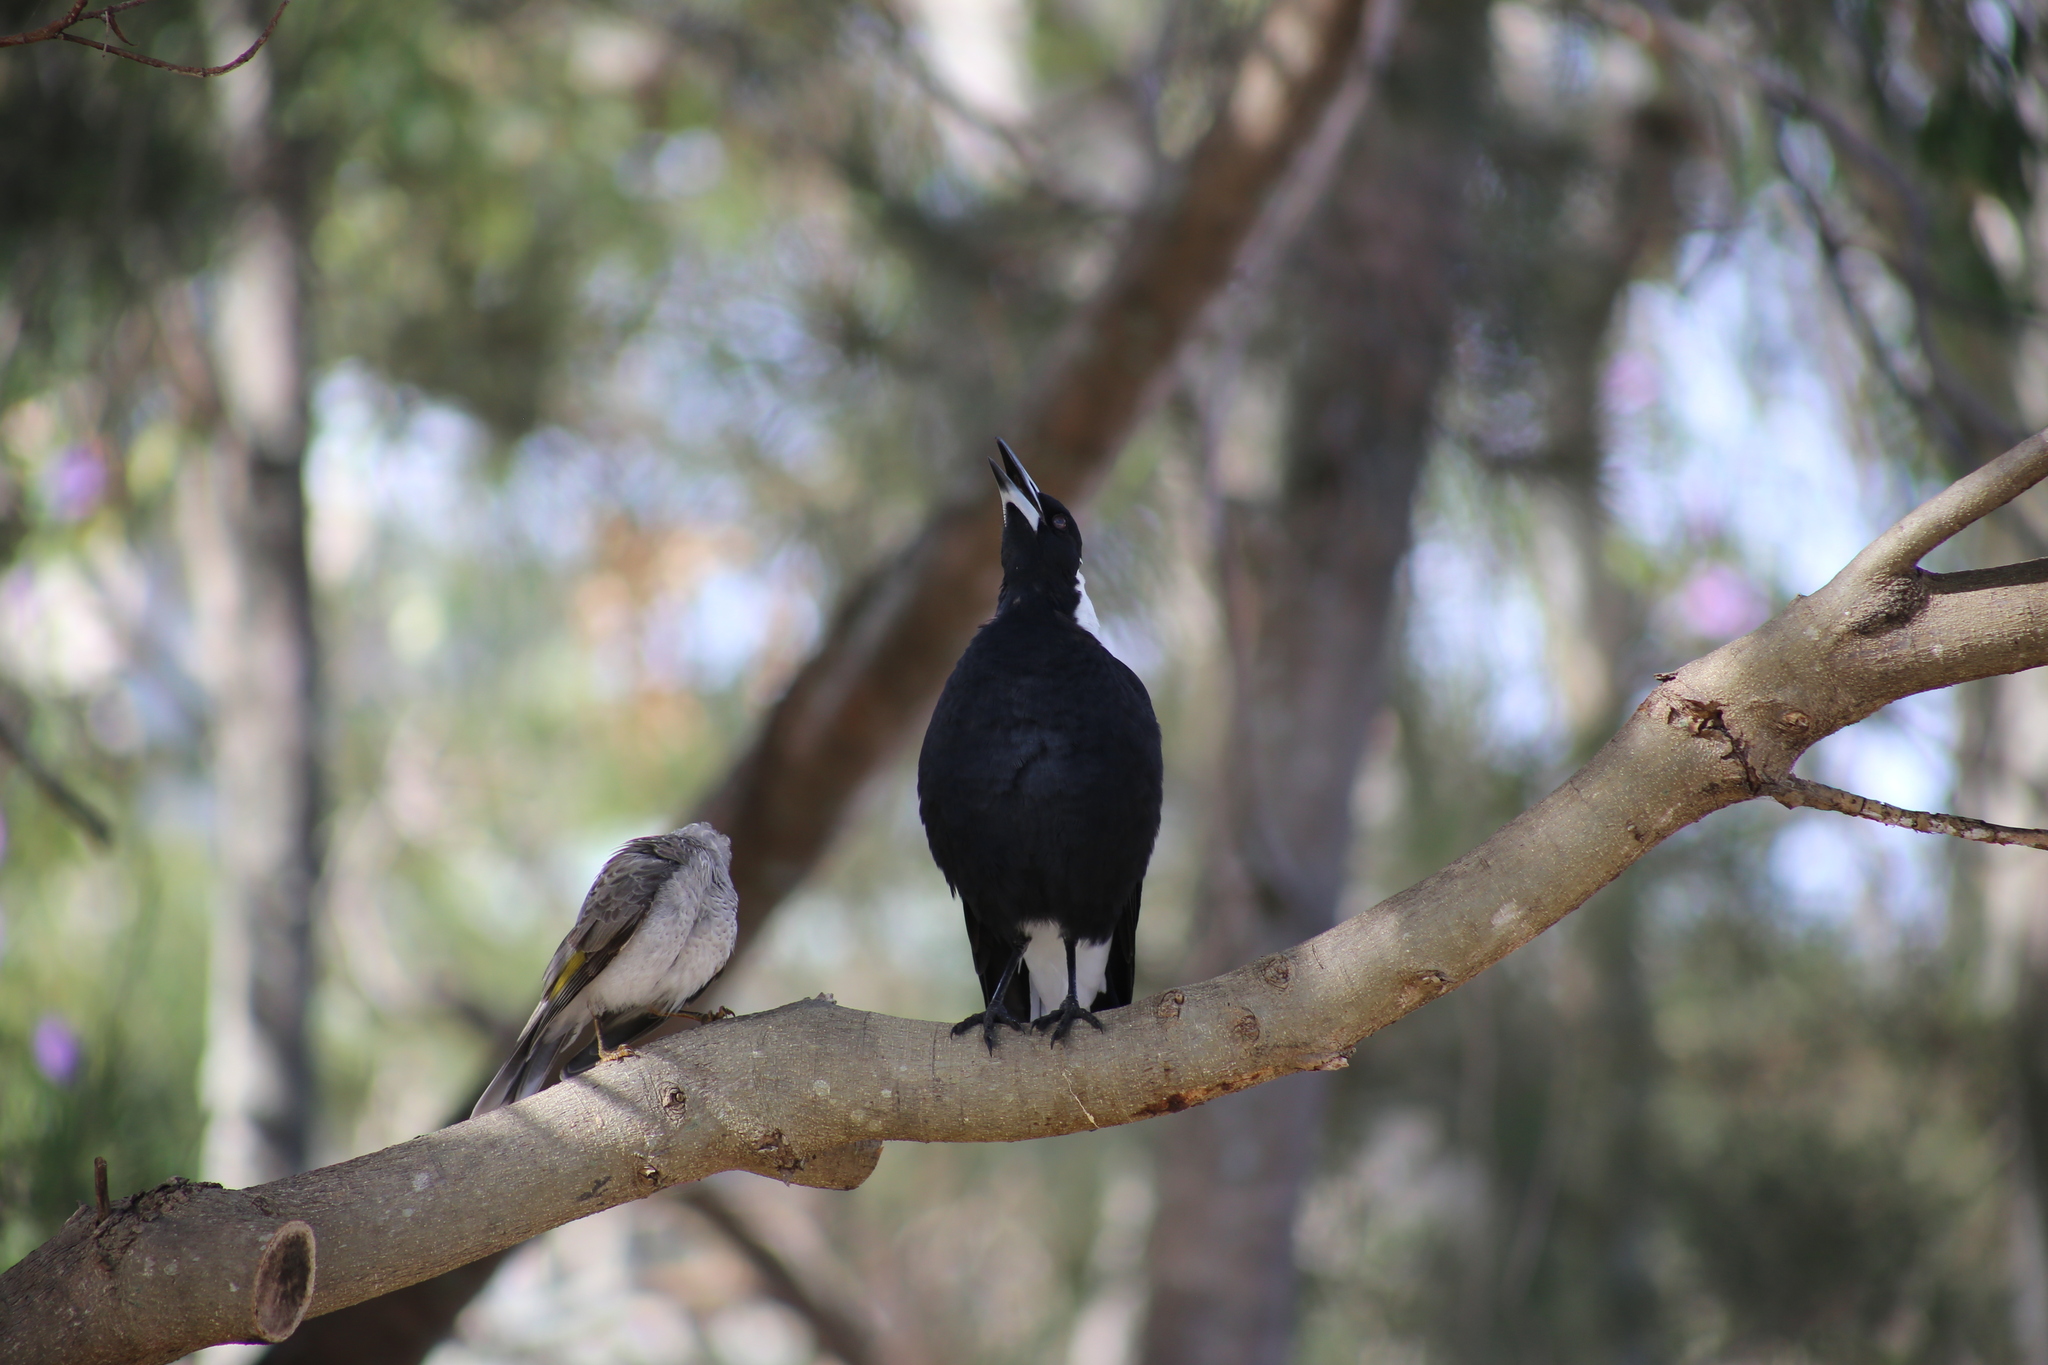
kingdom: Animalia
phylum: Chordata
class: Aves
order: Passeriformes
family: Meliphagidae
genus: Manorina
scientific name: Manorina melanocephala
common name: Noisy miner
